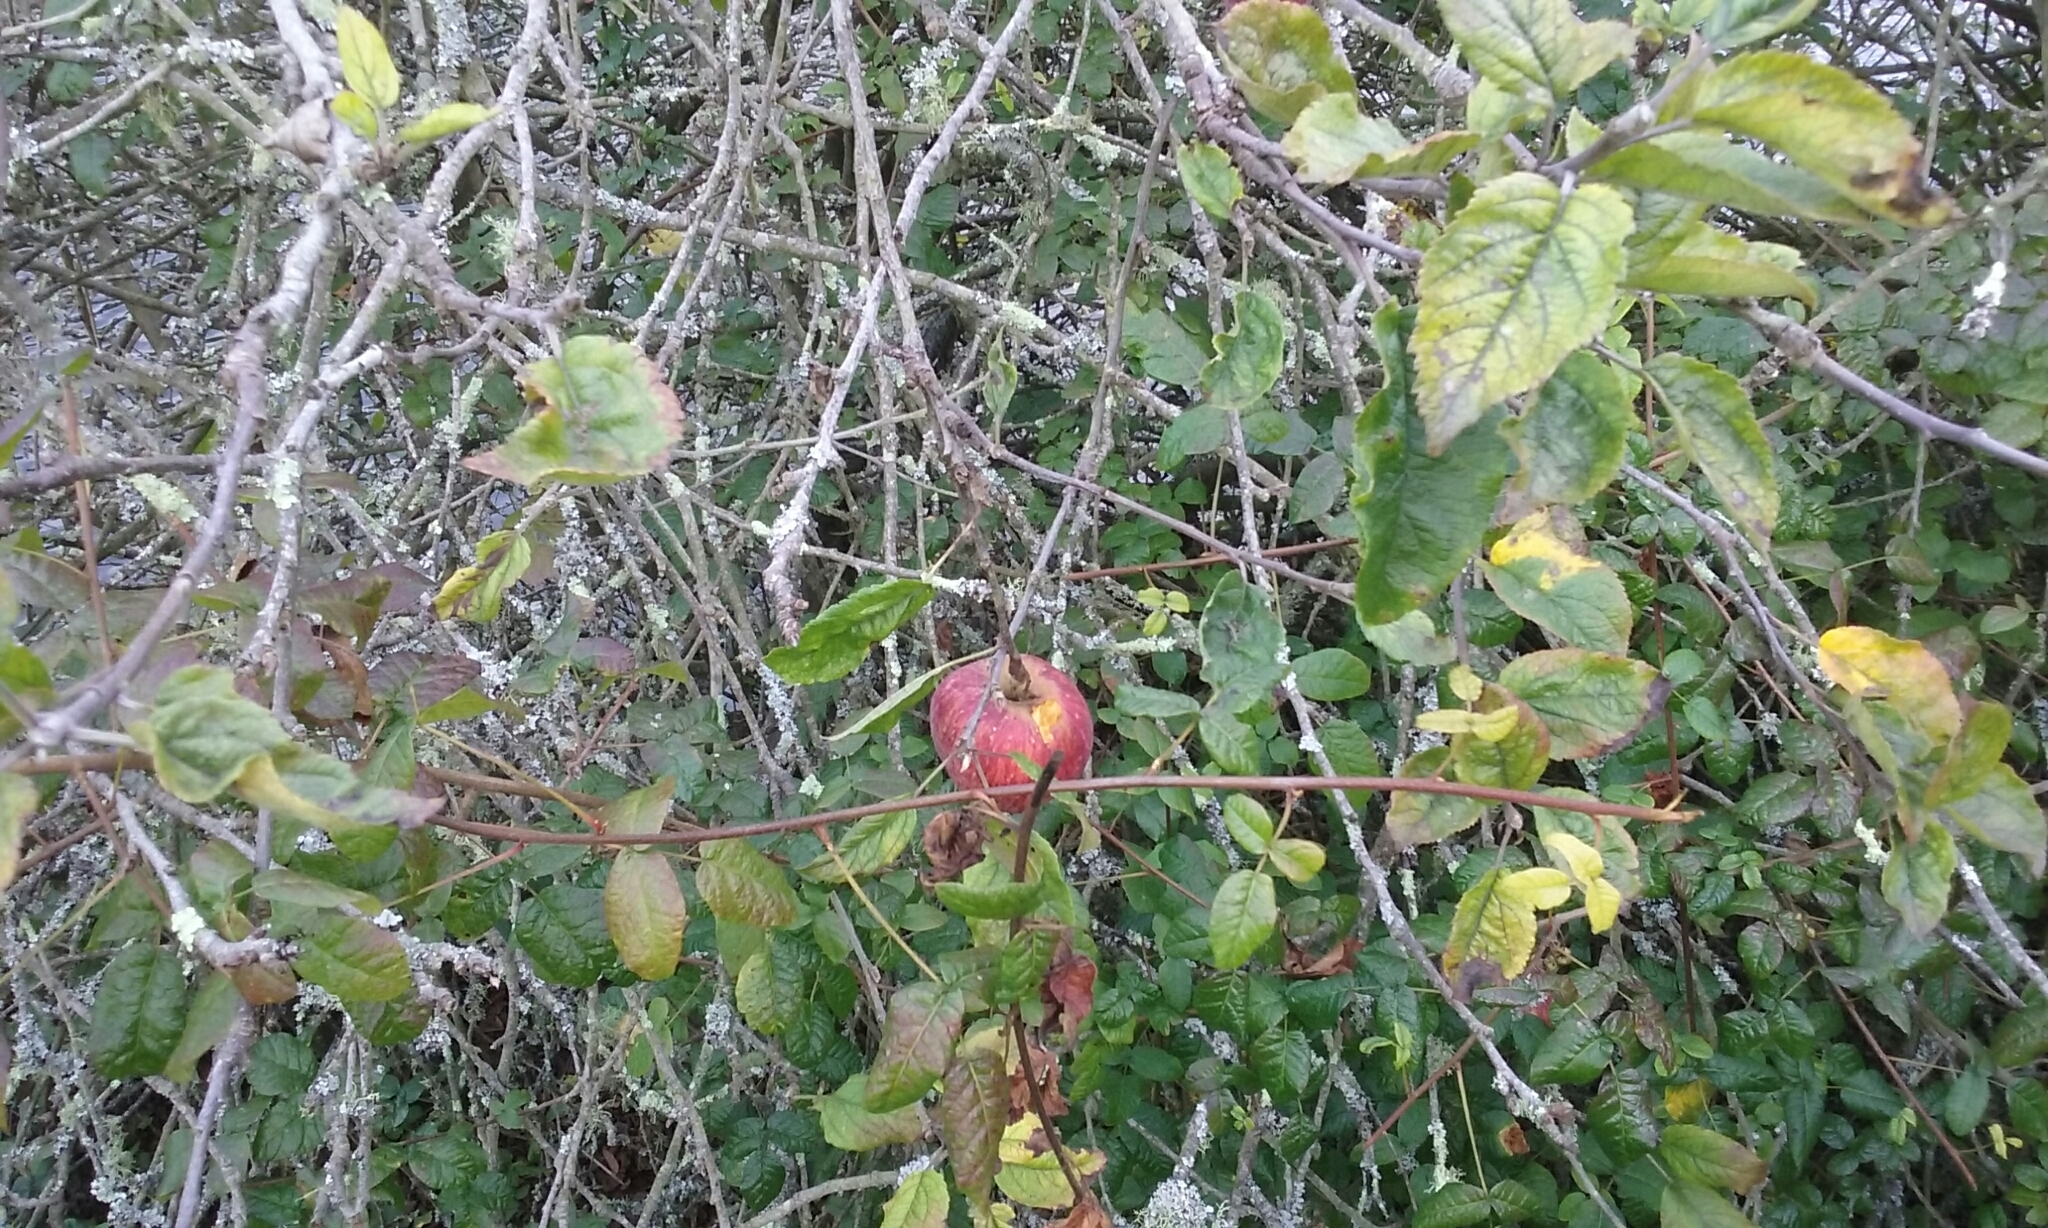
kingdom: Plantae
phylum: Tracheophyta
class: Magnoliopsida
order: Rosales
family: Rosaceae
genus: Malus
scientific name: Malus domestica
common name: Apple
